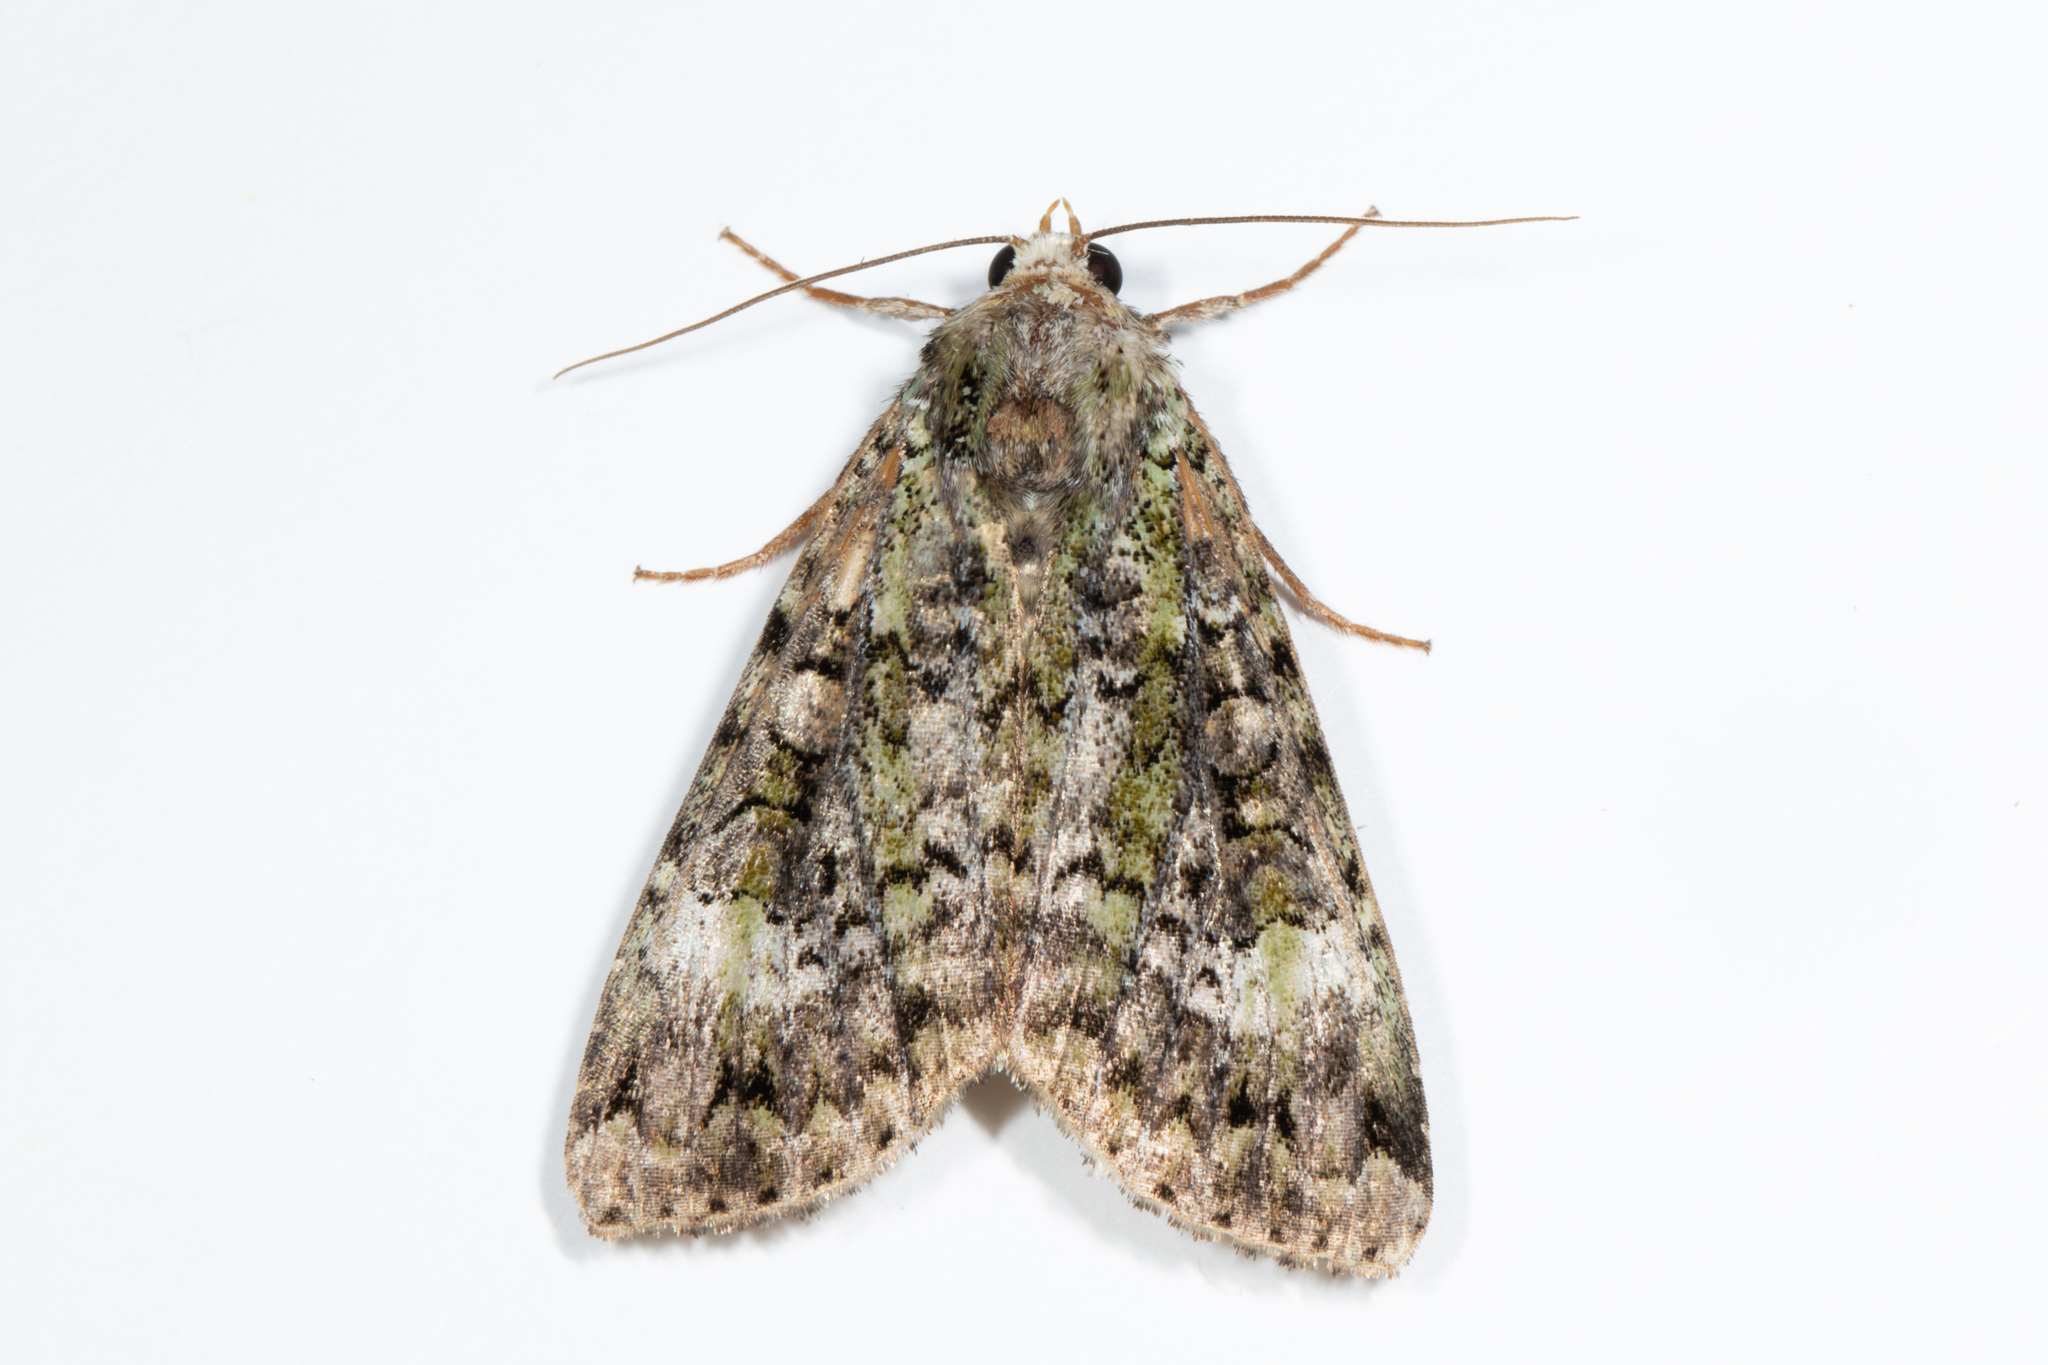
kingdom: Animalia
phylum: Arthropoda
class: Insecta
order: Lepidoptera
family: Noctuidae
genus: Anaplectoides
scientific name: Anaplectoides prasina
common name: Green arches
